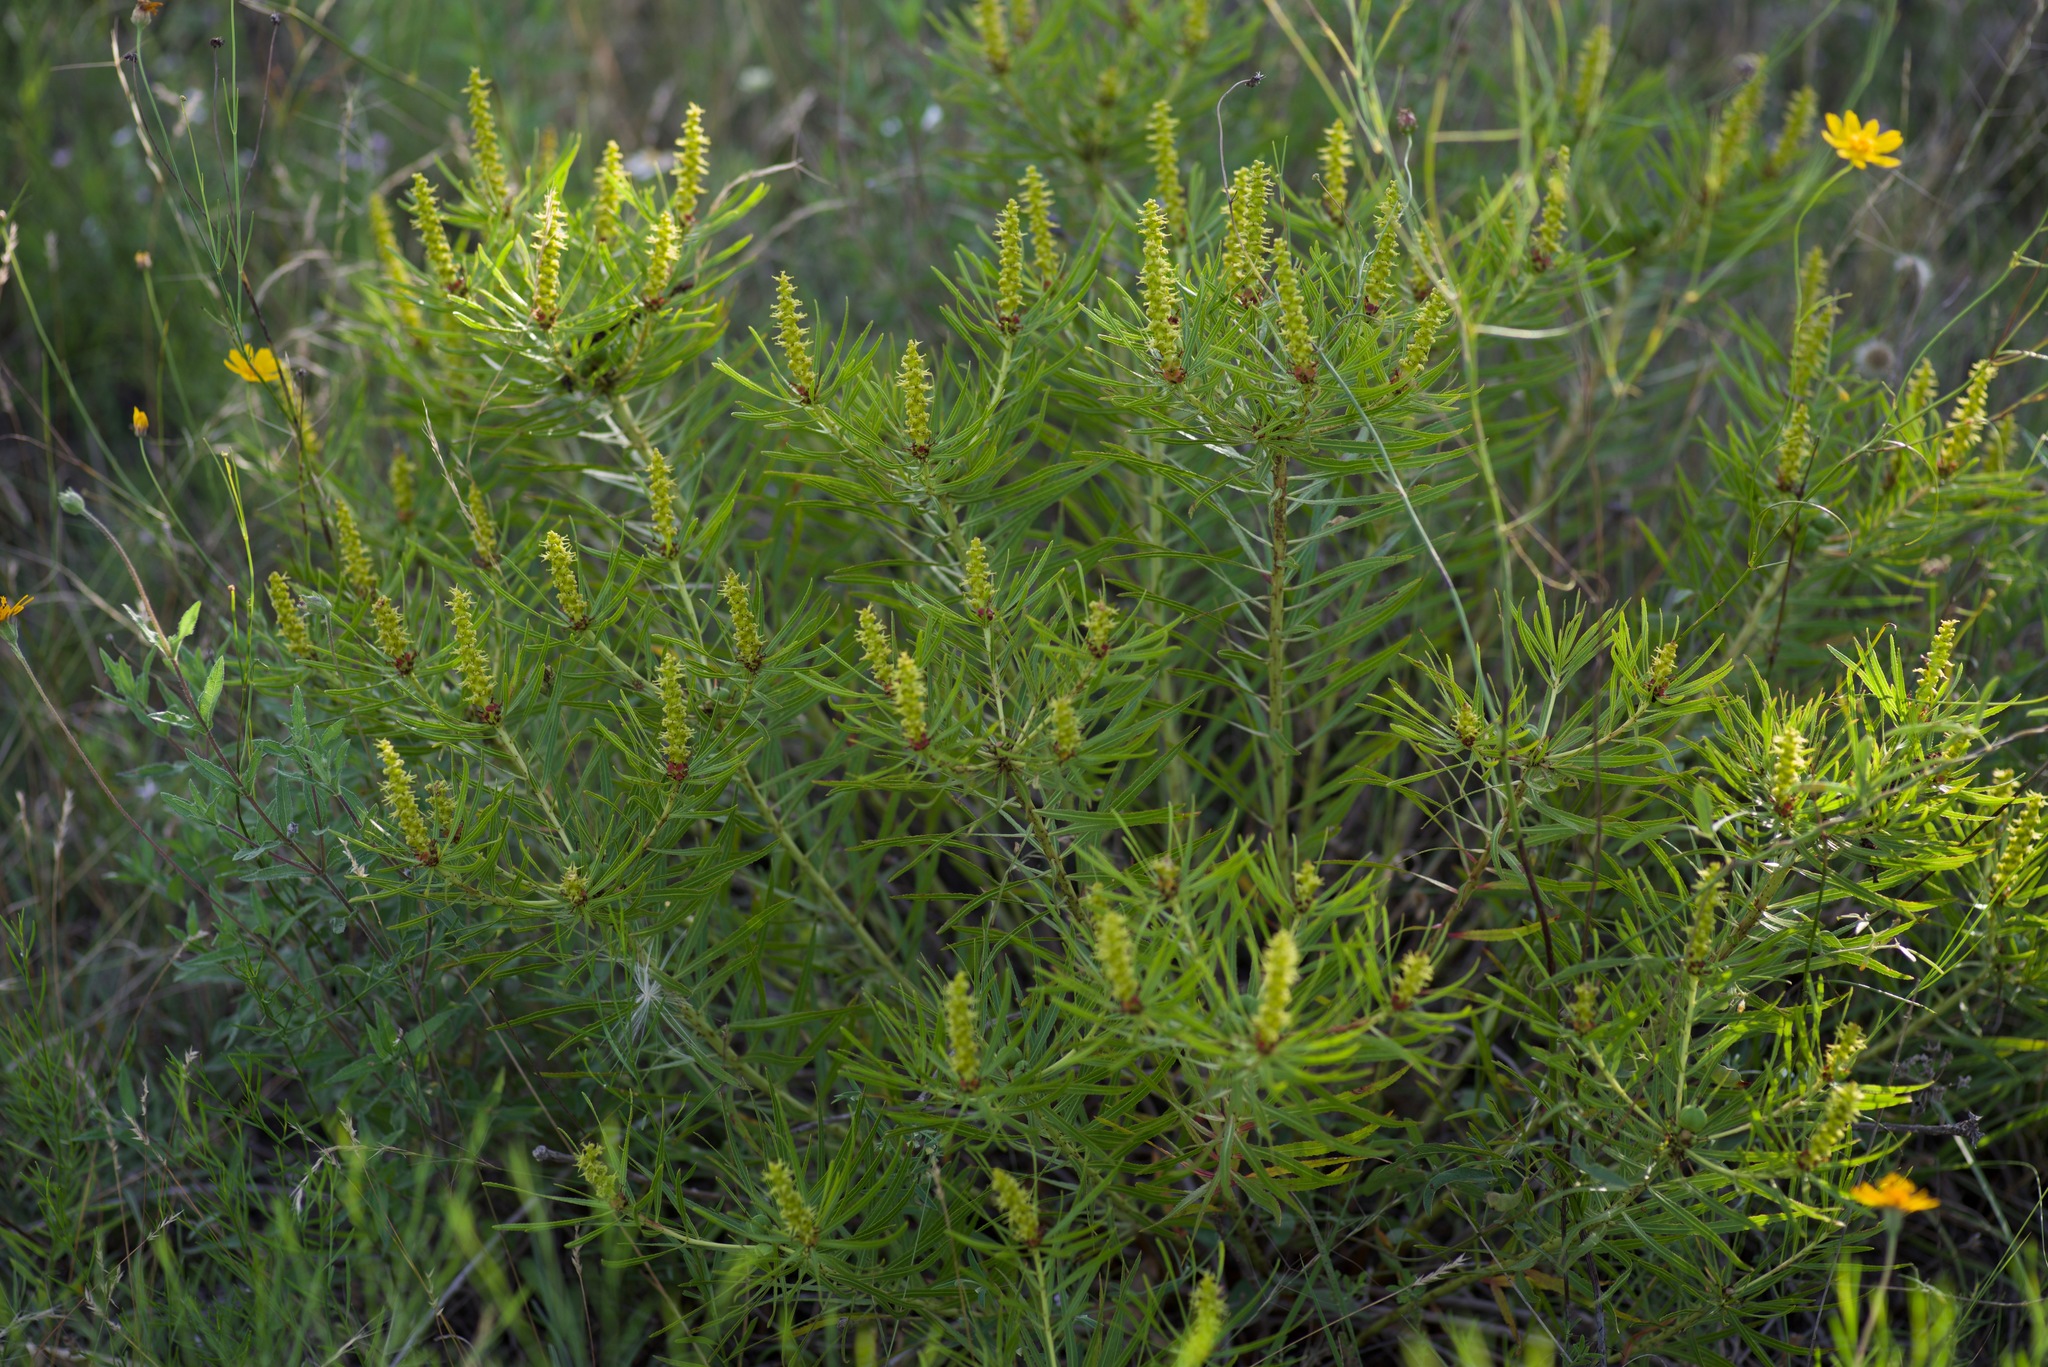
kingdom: Plantae
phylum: Tracheophyta
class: Magnoliopsida
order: Malpighiales
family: Euphorbiaceae
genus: Stillingia
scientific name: Stillingia texana
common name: Texas stillingia
